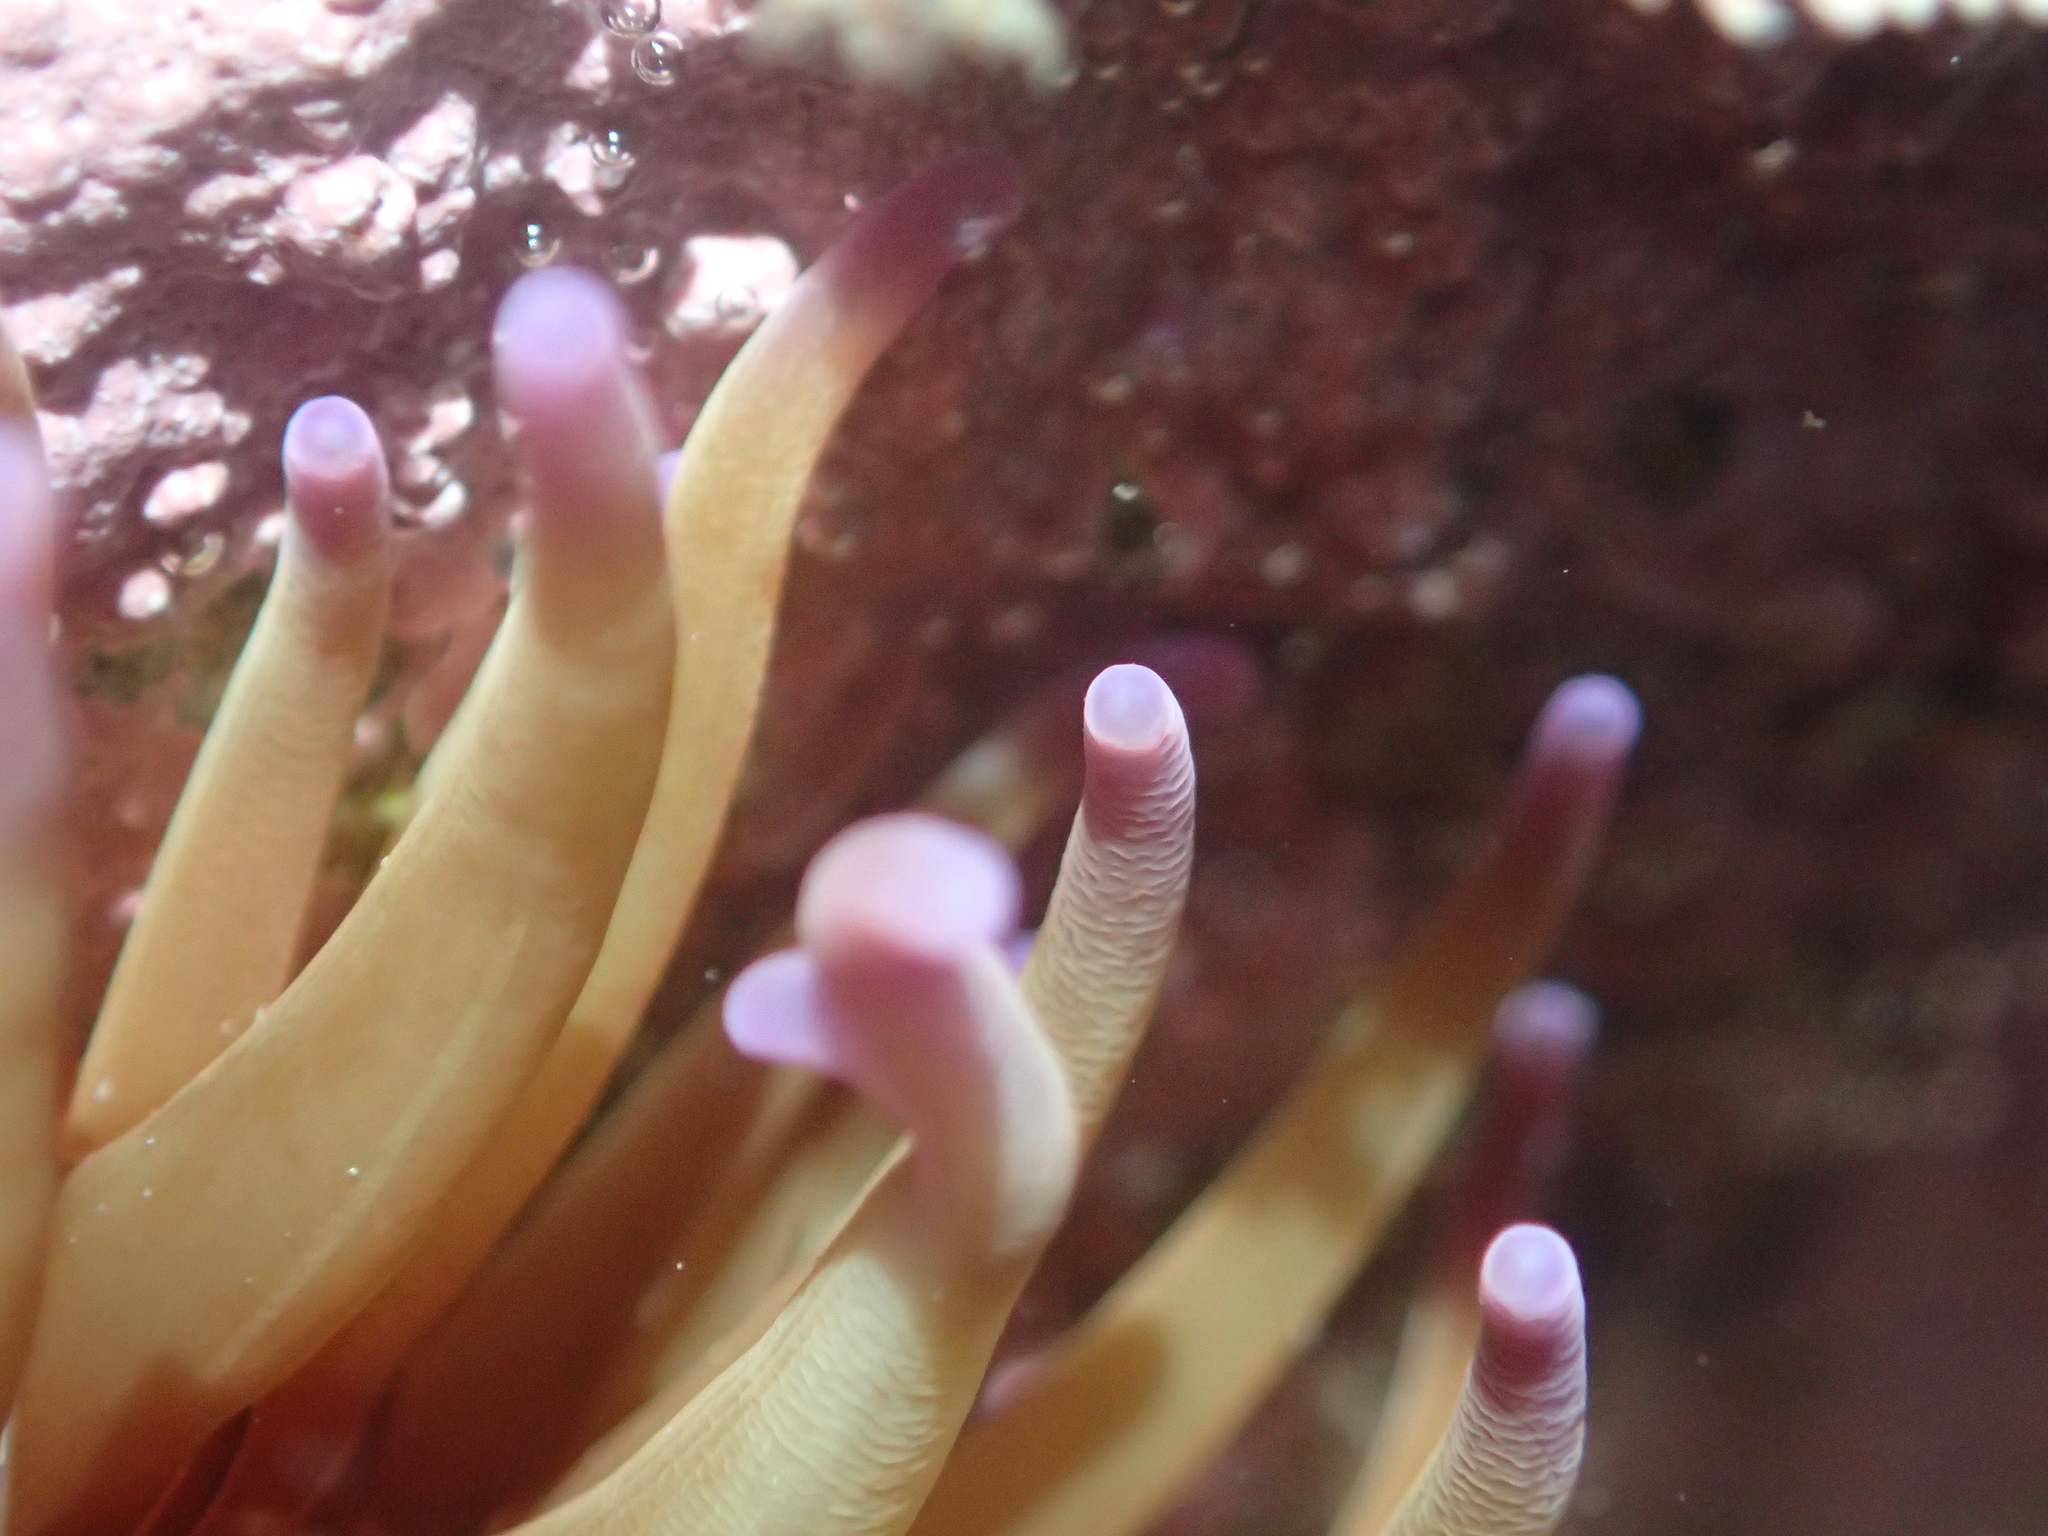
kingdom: Animalia
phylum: Cnidaria
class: Anthozoa
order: Actiniaria
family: Actiniidae
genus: Epiactis
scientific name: Epiactis thompsoni
